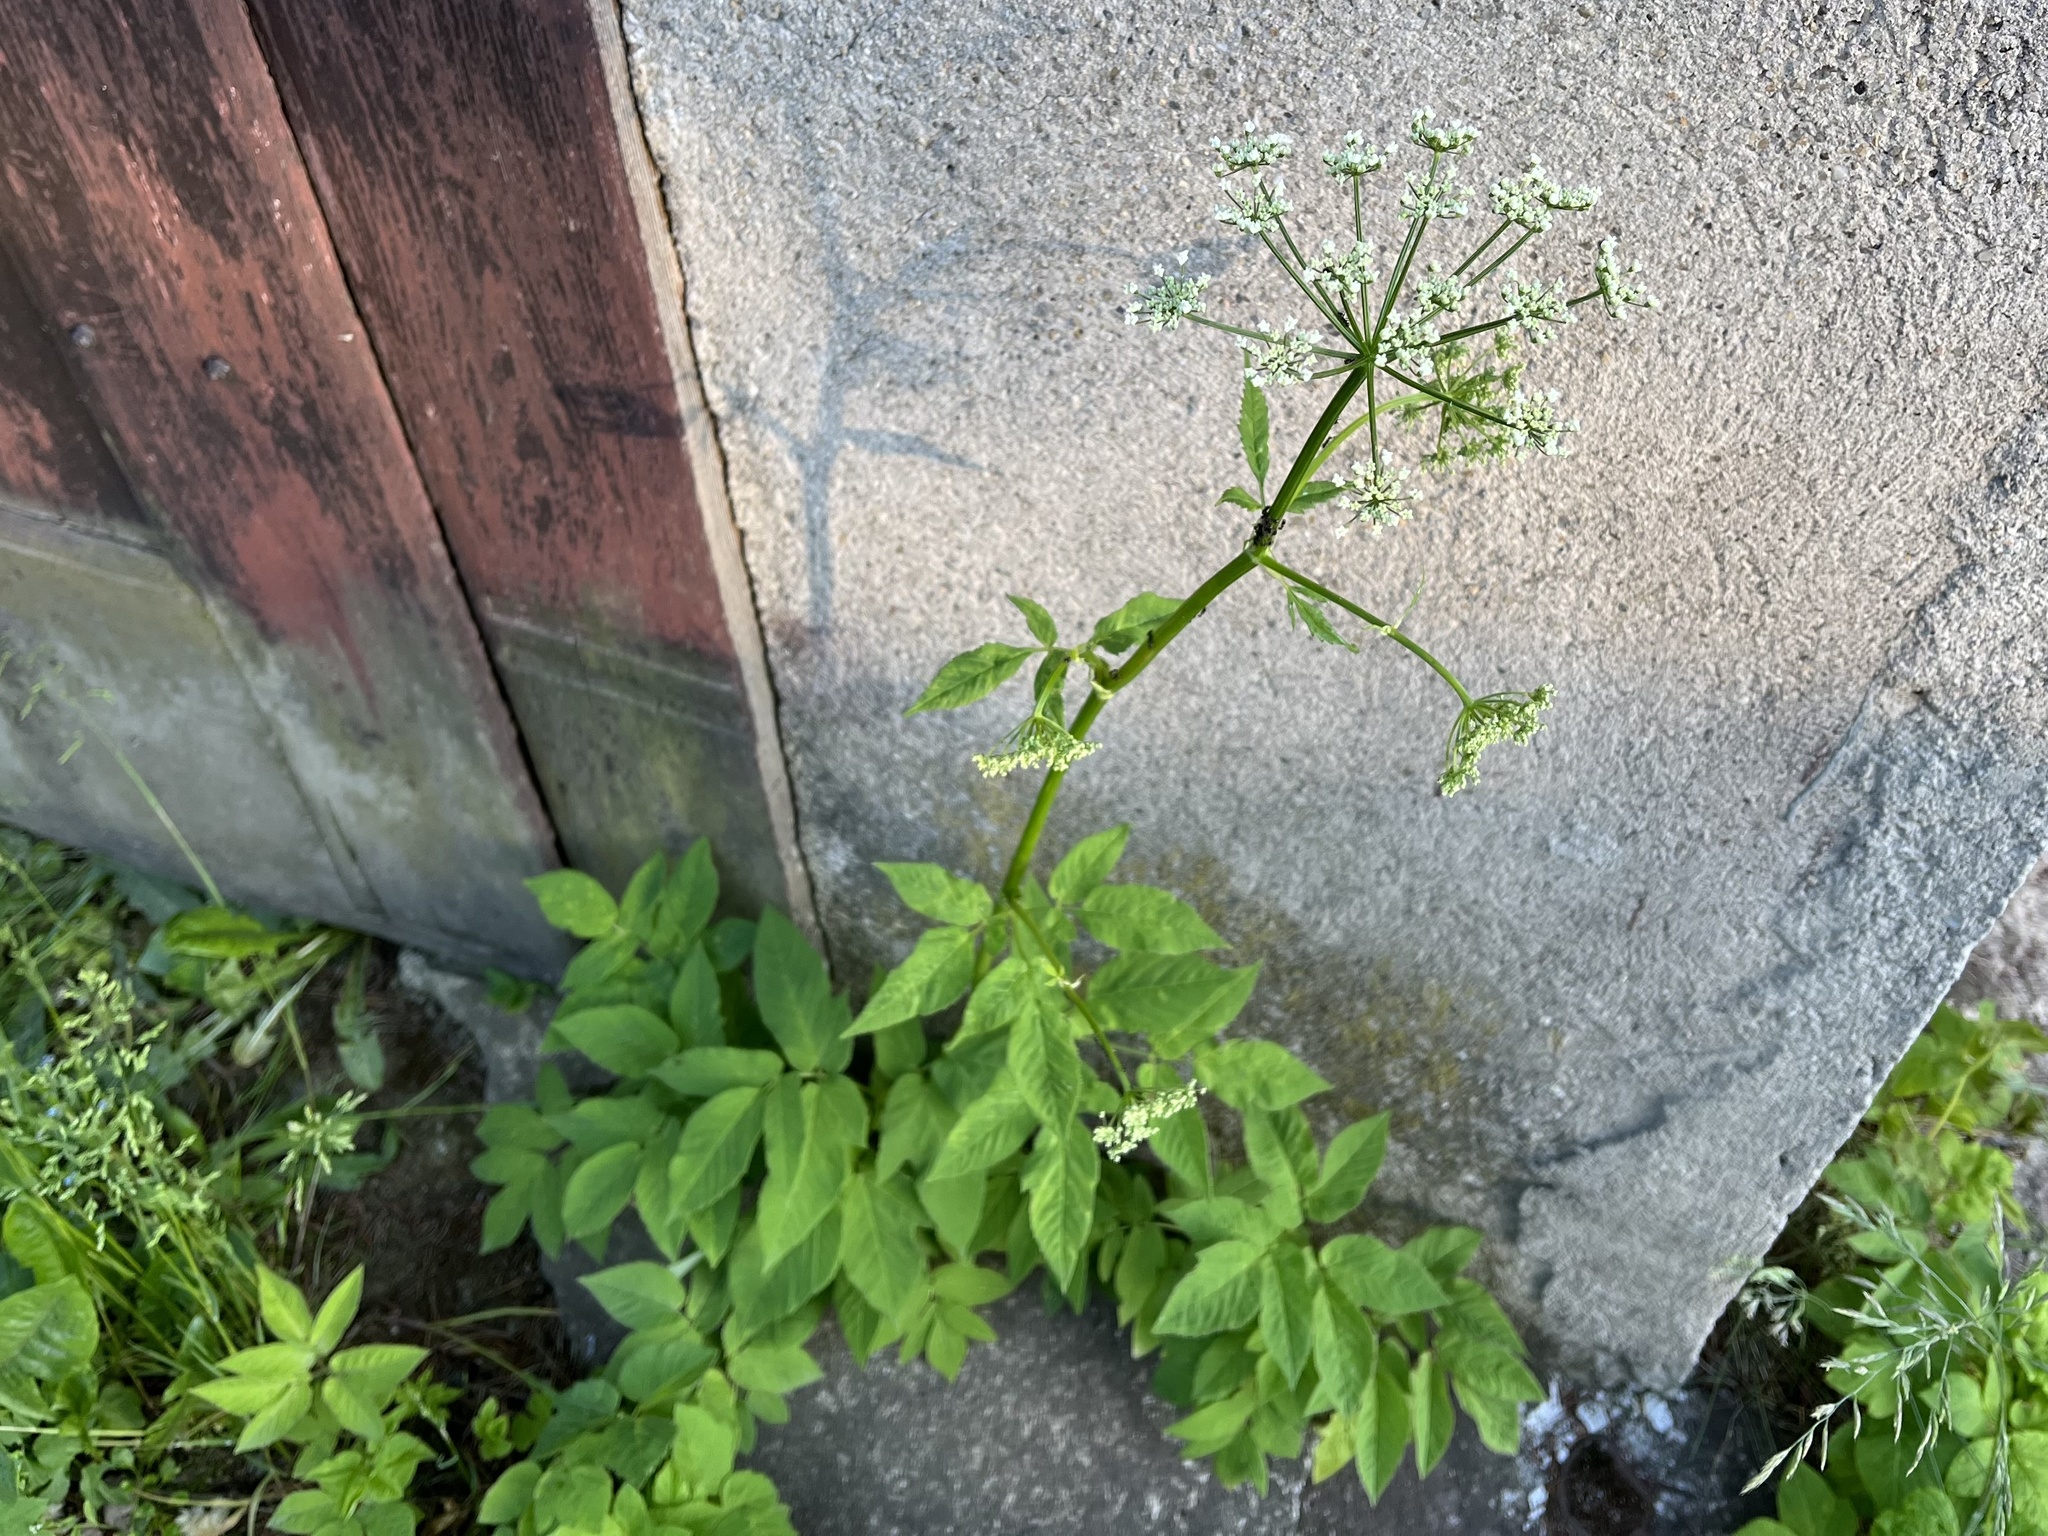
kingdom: Plantae
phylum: Tracheophyta
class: Magnoliopsida
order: Apiales
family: Apiaceae
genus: Aegopodium
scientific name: Aegopodium podagraria
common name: Ground-elder
